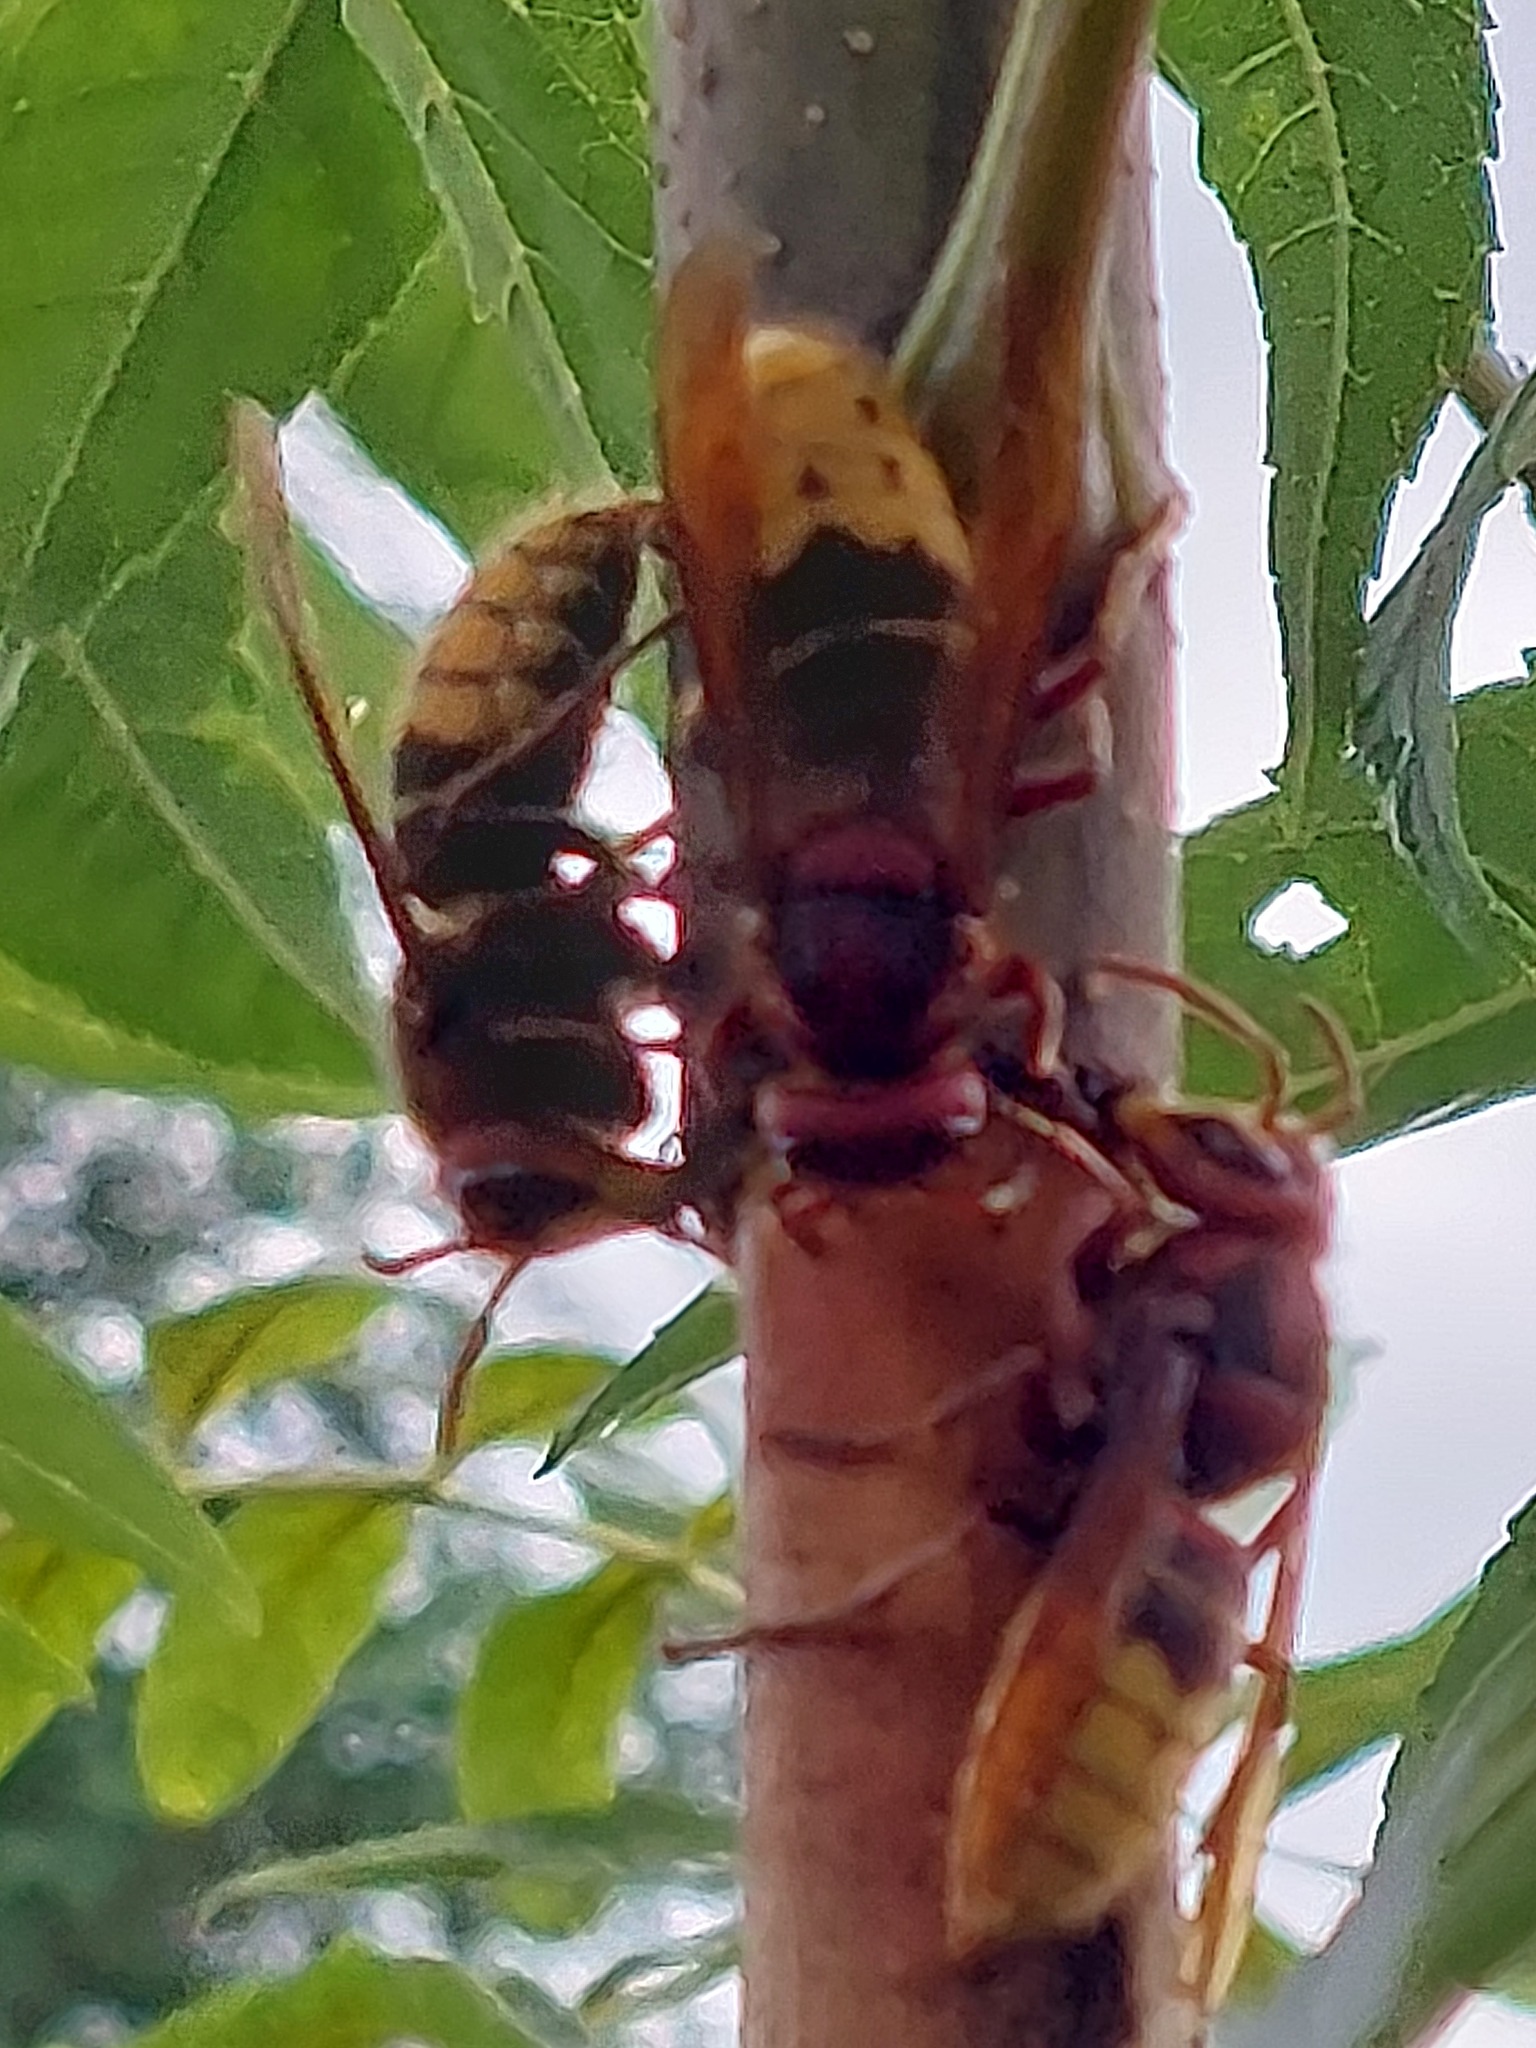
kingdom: Animalia
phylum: Arthropoda
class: Insecta
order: Hymenoptera
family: Vespidae
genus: Vespa
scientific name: Vespa crabro
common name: Hornet
